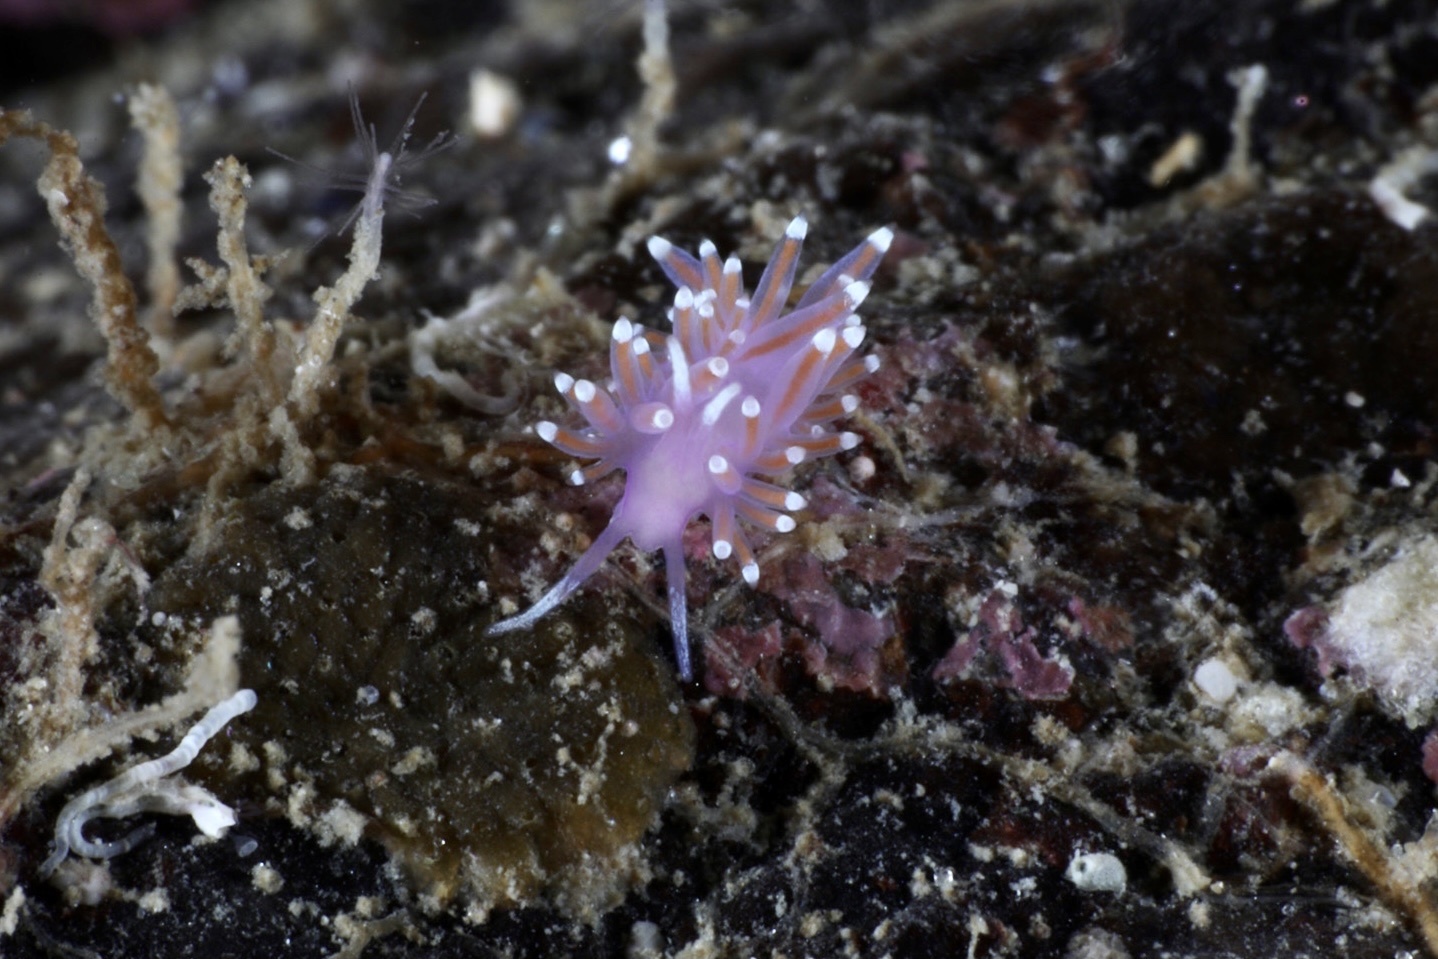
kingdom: Animalia
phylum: Mollusca
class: Gastropoda
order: Nudibranchia
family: Flabellinidae
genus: Edmundsella
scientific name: Edmundsella pedata
